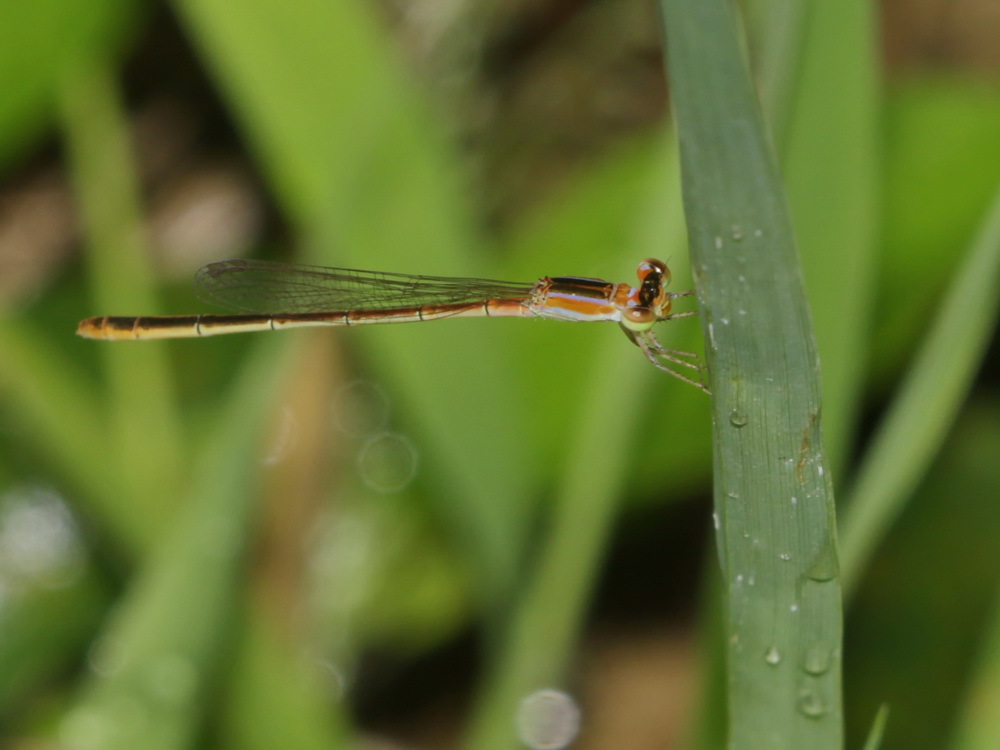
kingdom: Animalia
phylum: Arthropoda
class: Insecta
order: Odonata
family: Coenagrionidae
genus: Agriocnemis
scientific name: Agriocnemis pygmaea
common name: Pygmy wisp
